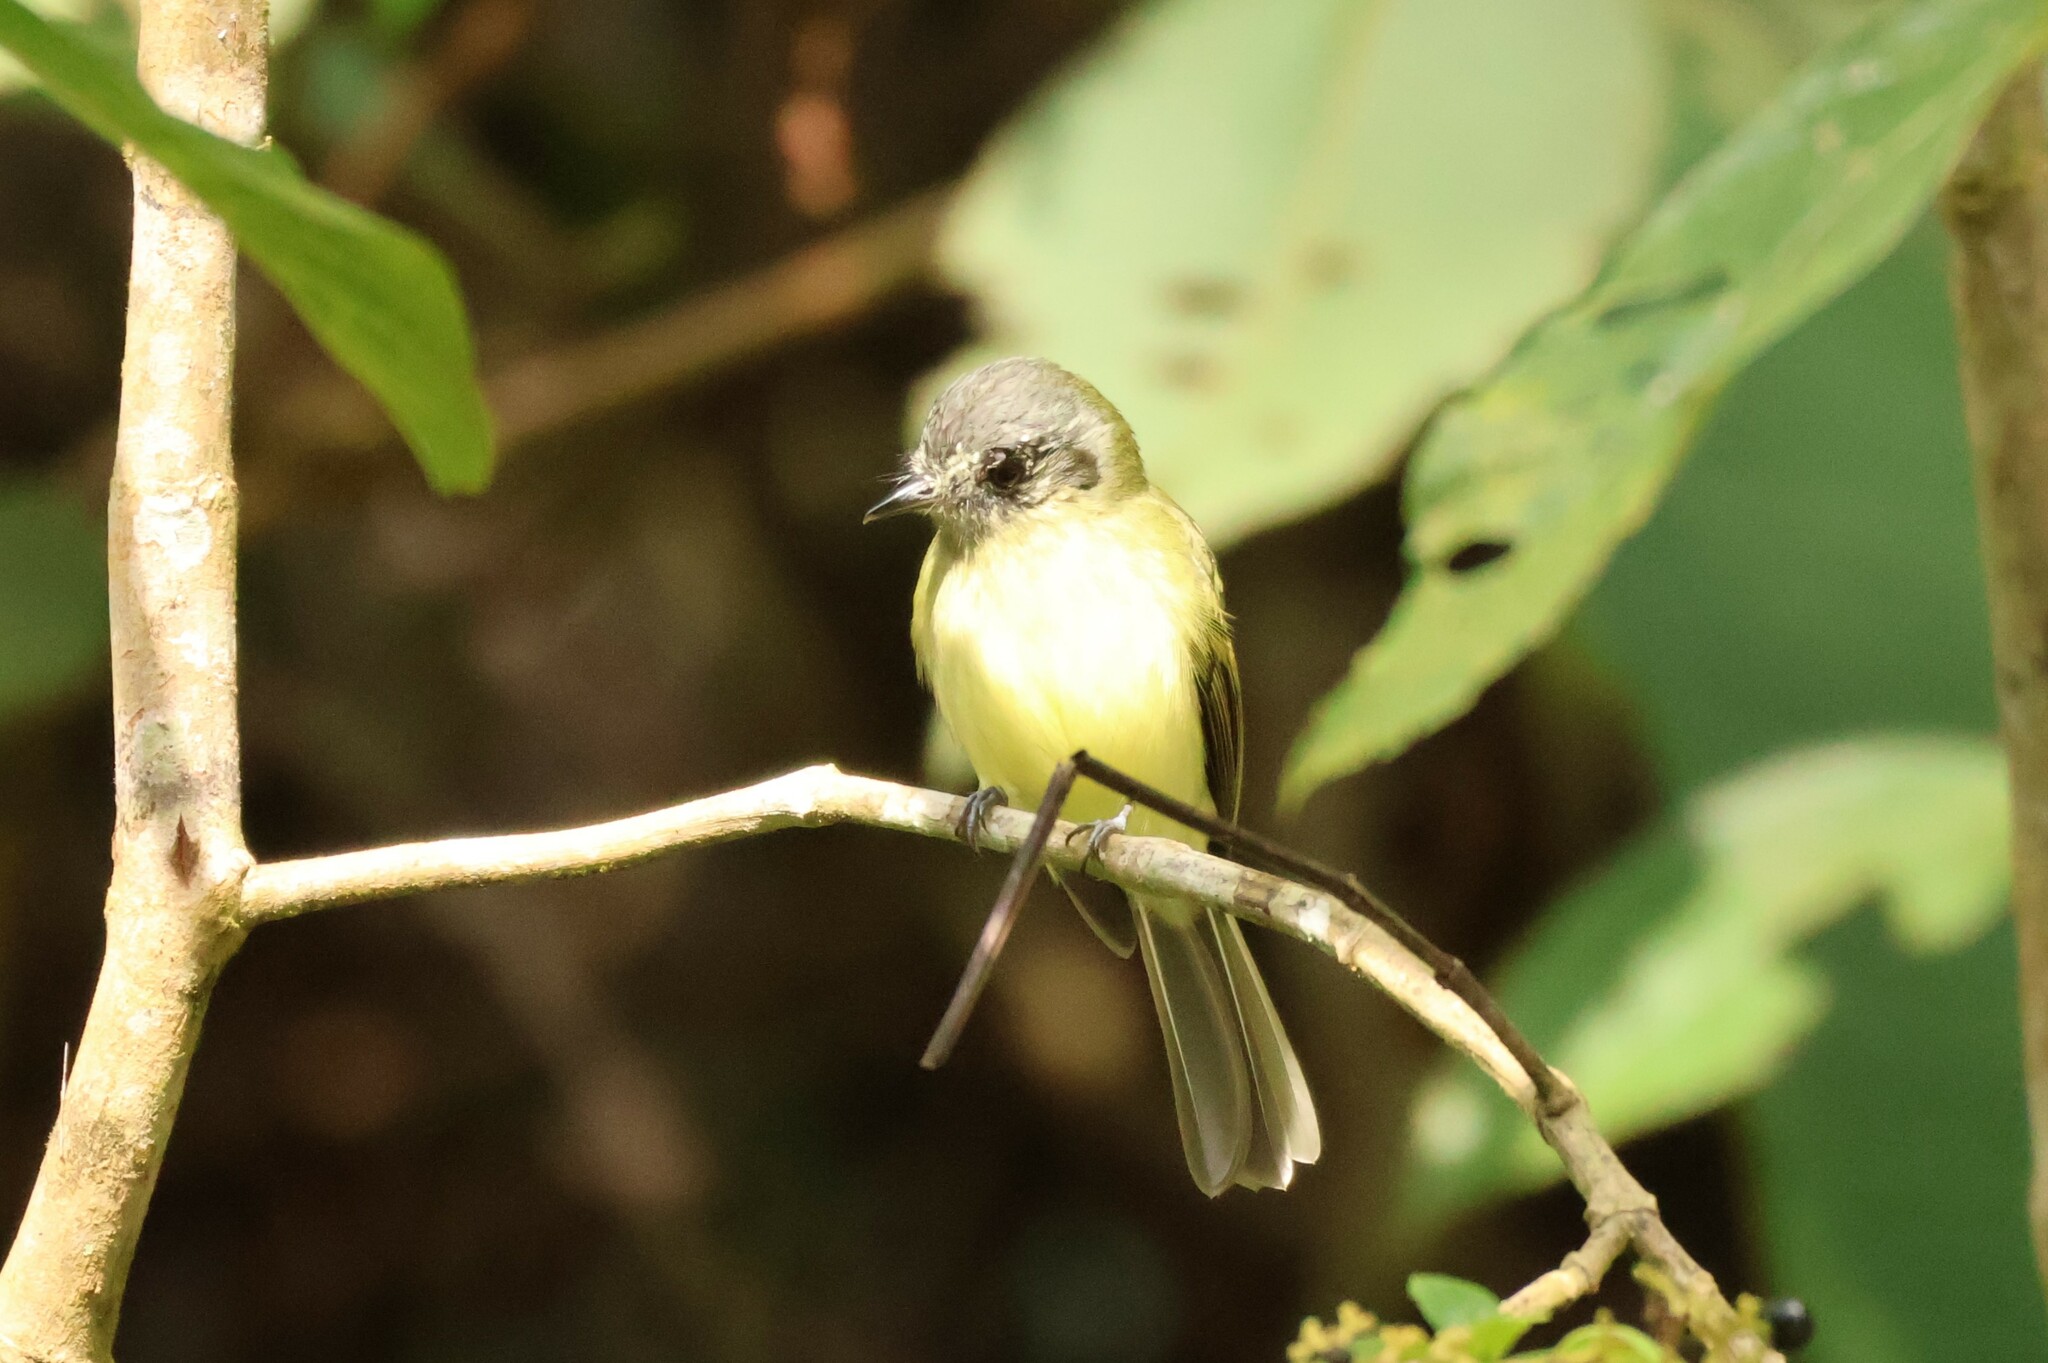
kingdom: Animalia
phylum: Chordata
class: Aves
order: Passeriformes
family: Tyrannidae
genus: Leptopogon
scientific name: Leptopogon superciliaris
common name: Slaty-capped flycatcher
